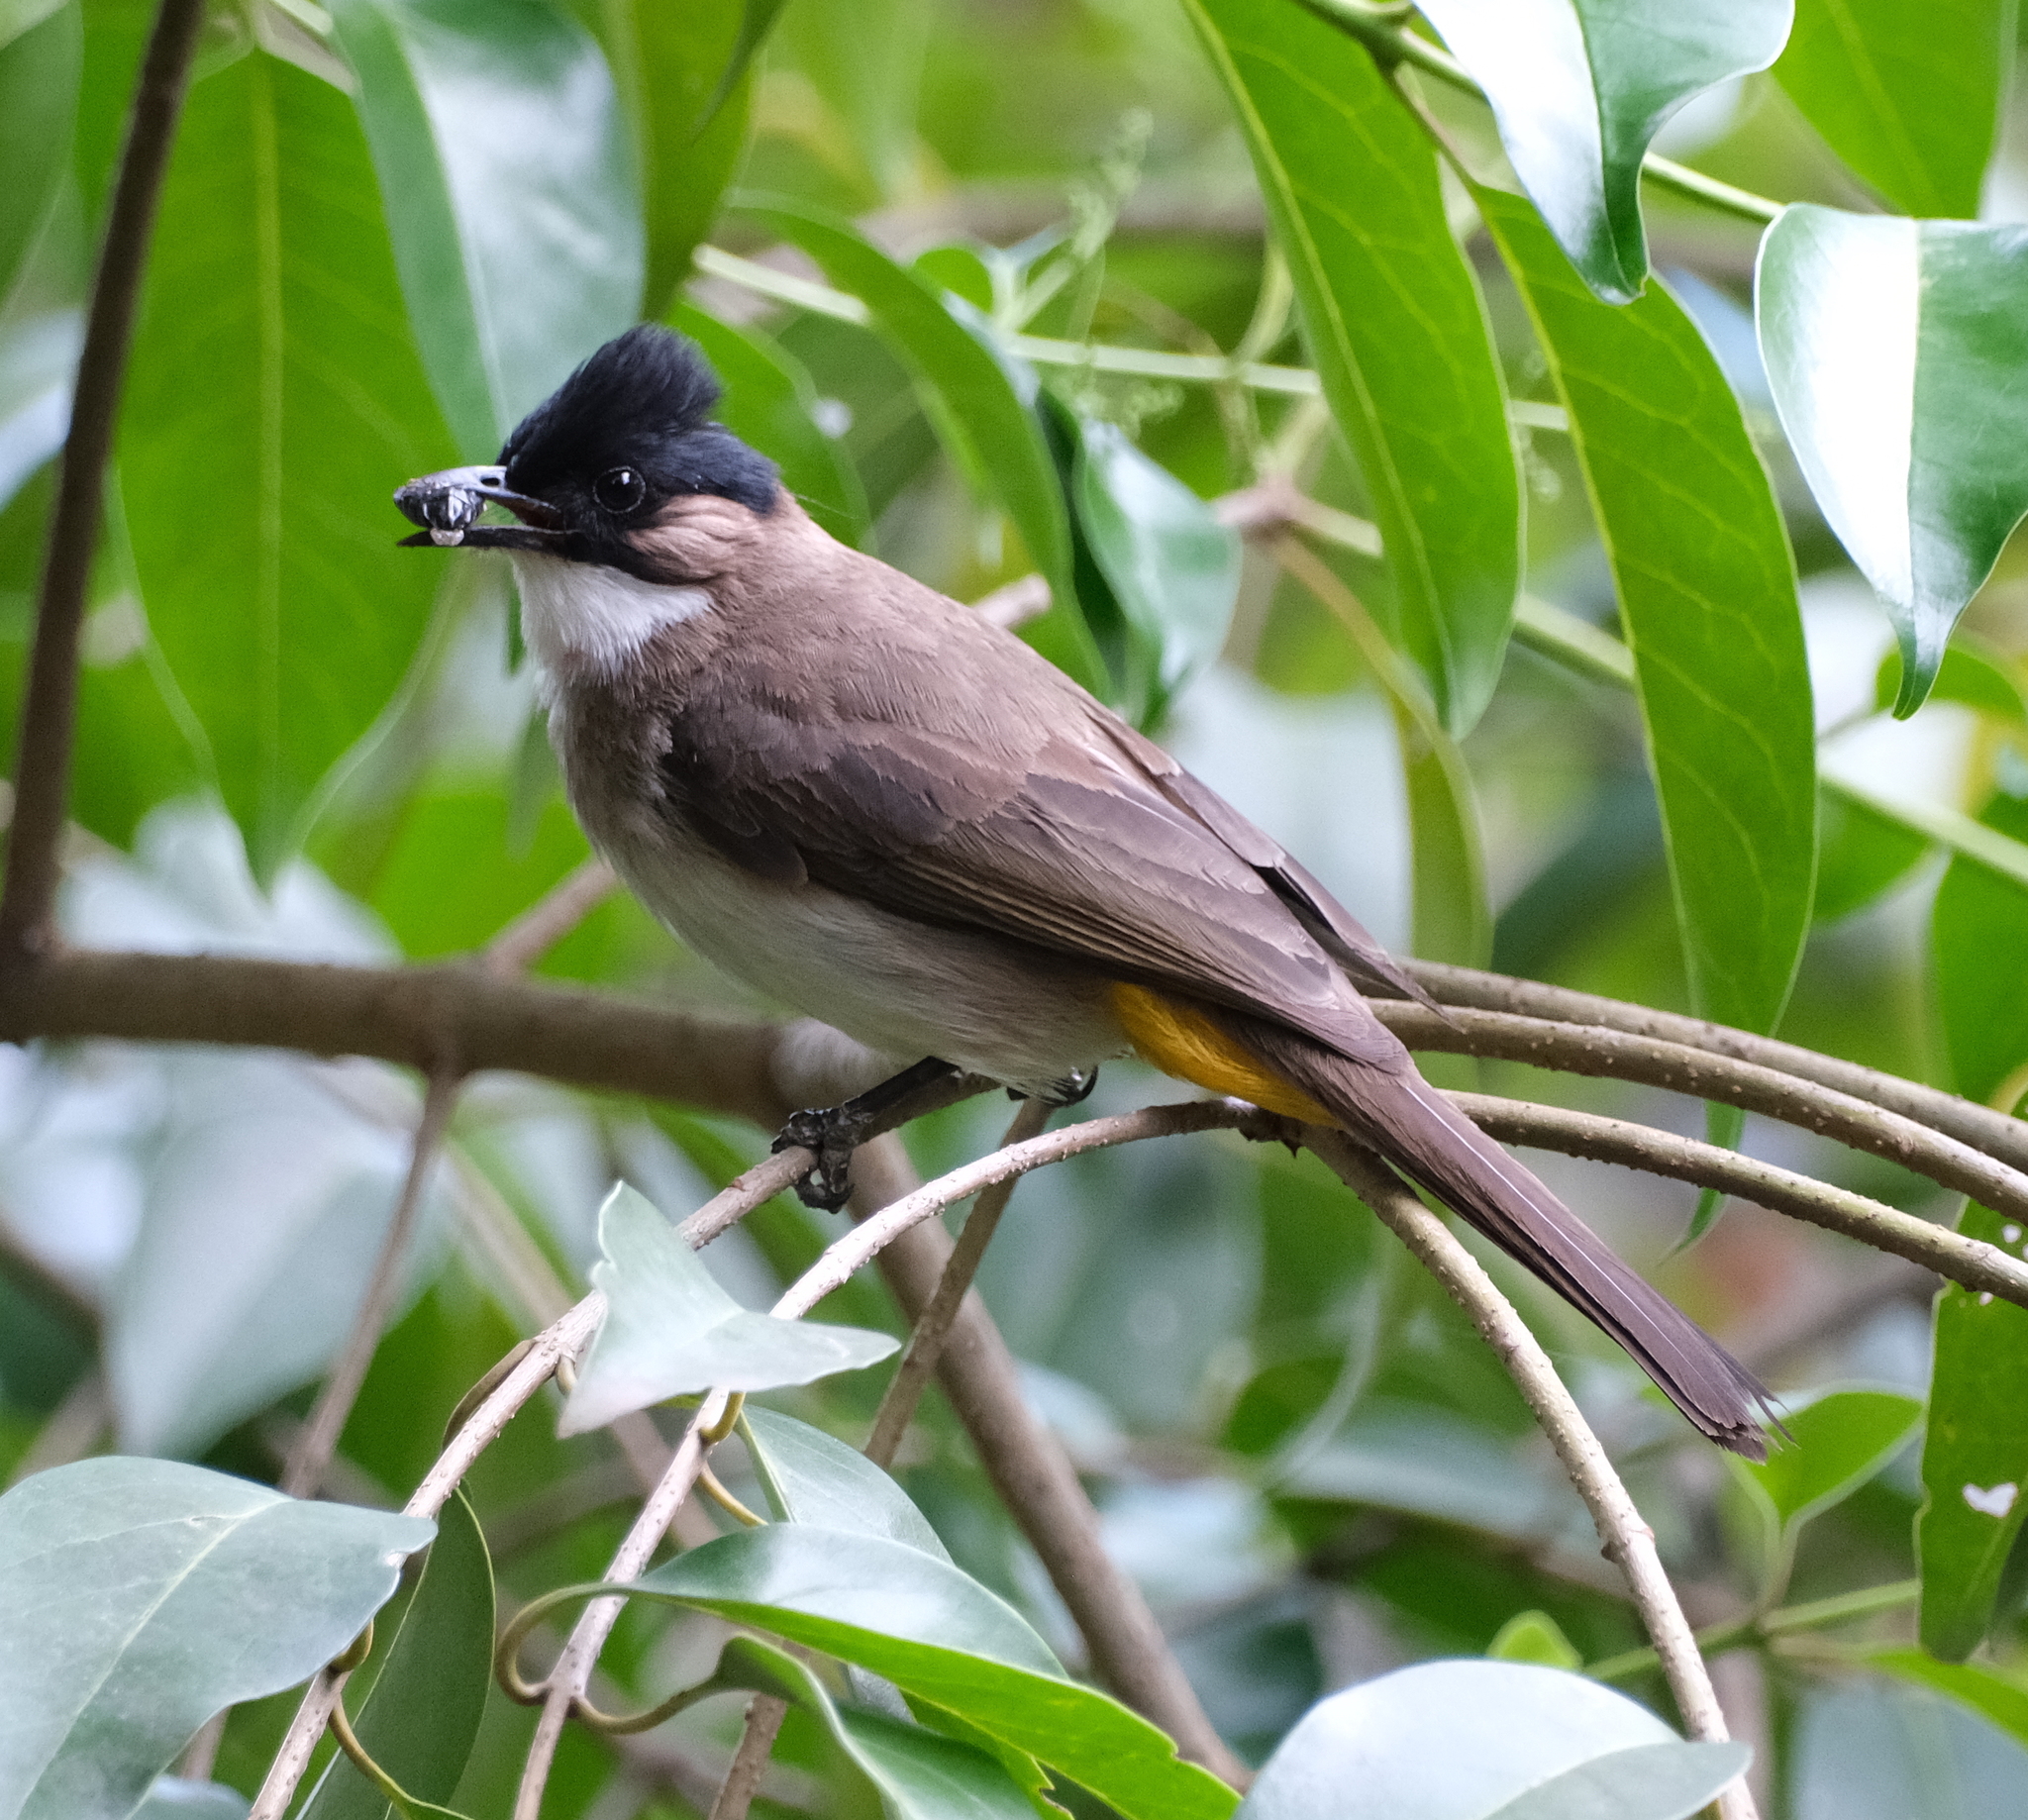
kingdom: Animalia
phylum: Chordata
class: Aves
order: Passeriformes
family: Pycnonotidae
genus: Pycnonotus
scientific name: Pycnonotus xanthorrhous
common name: Brown-breasted bulbul
